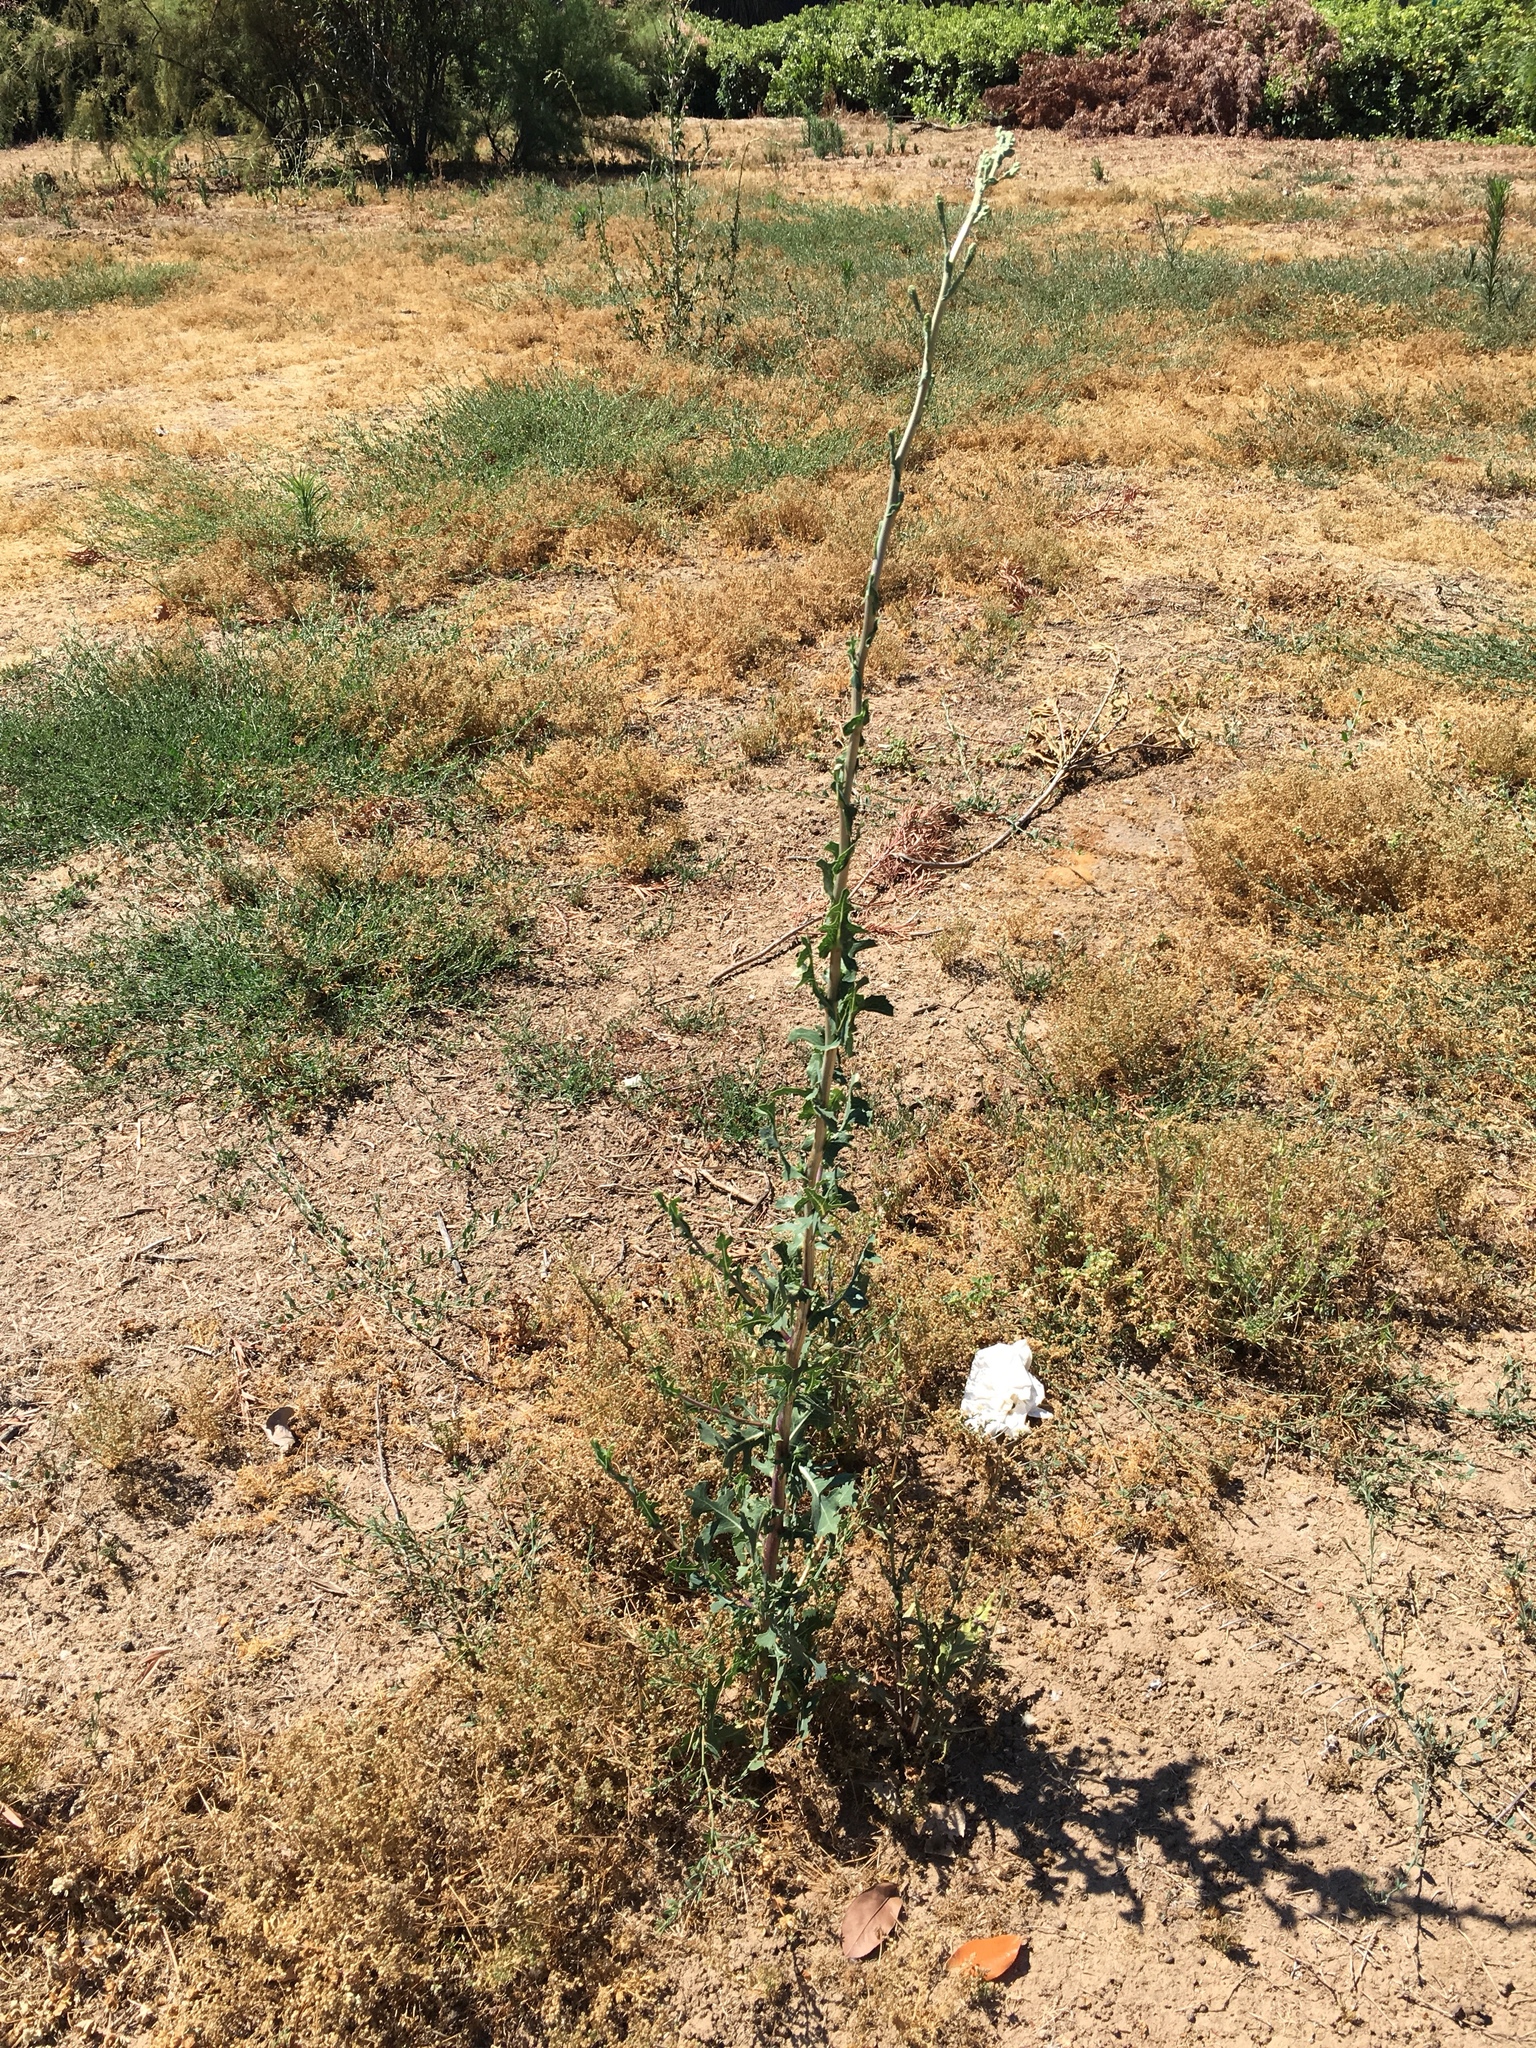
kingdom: Plantae
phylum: Tracheophyta
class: Magnoliopsida
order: Asterales
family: Asteraceae
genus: Lactuca
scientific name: Lactuca serriola
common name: Prickly lettuce
